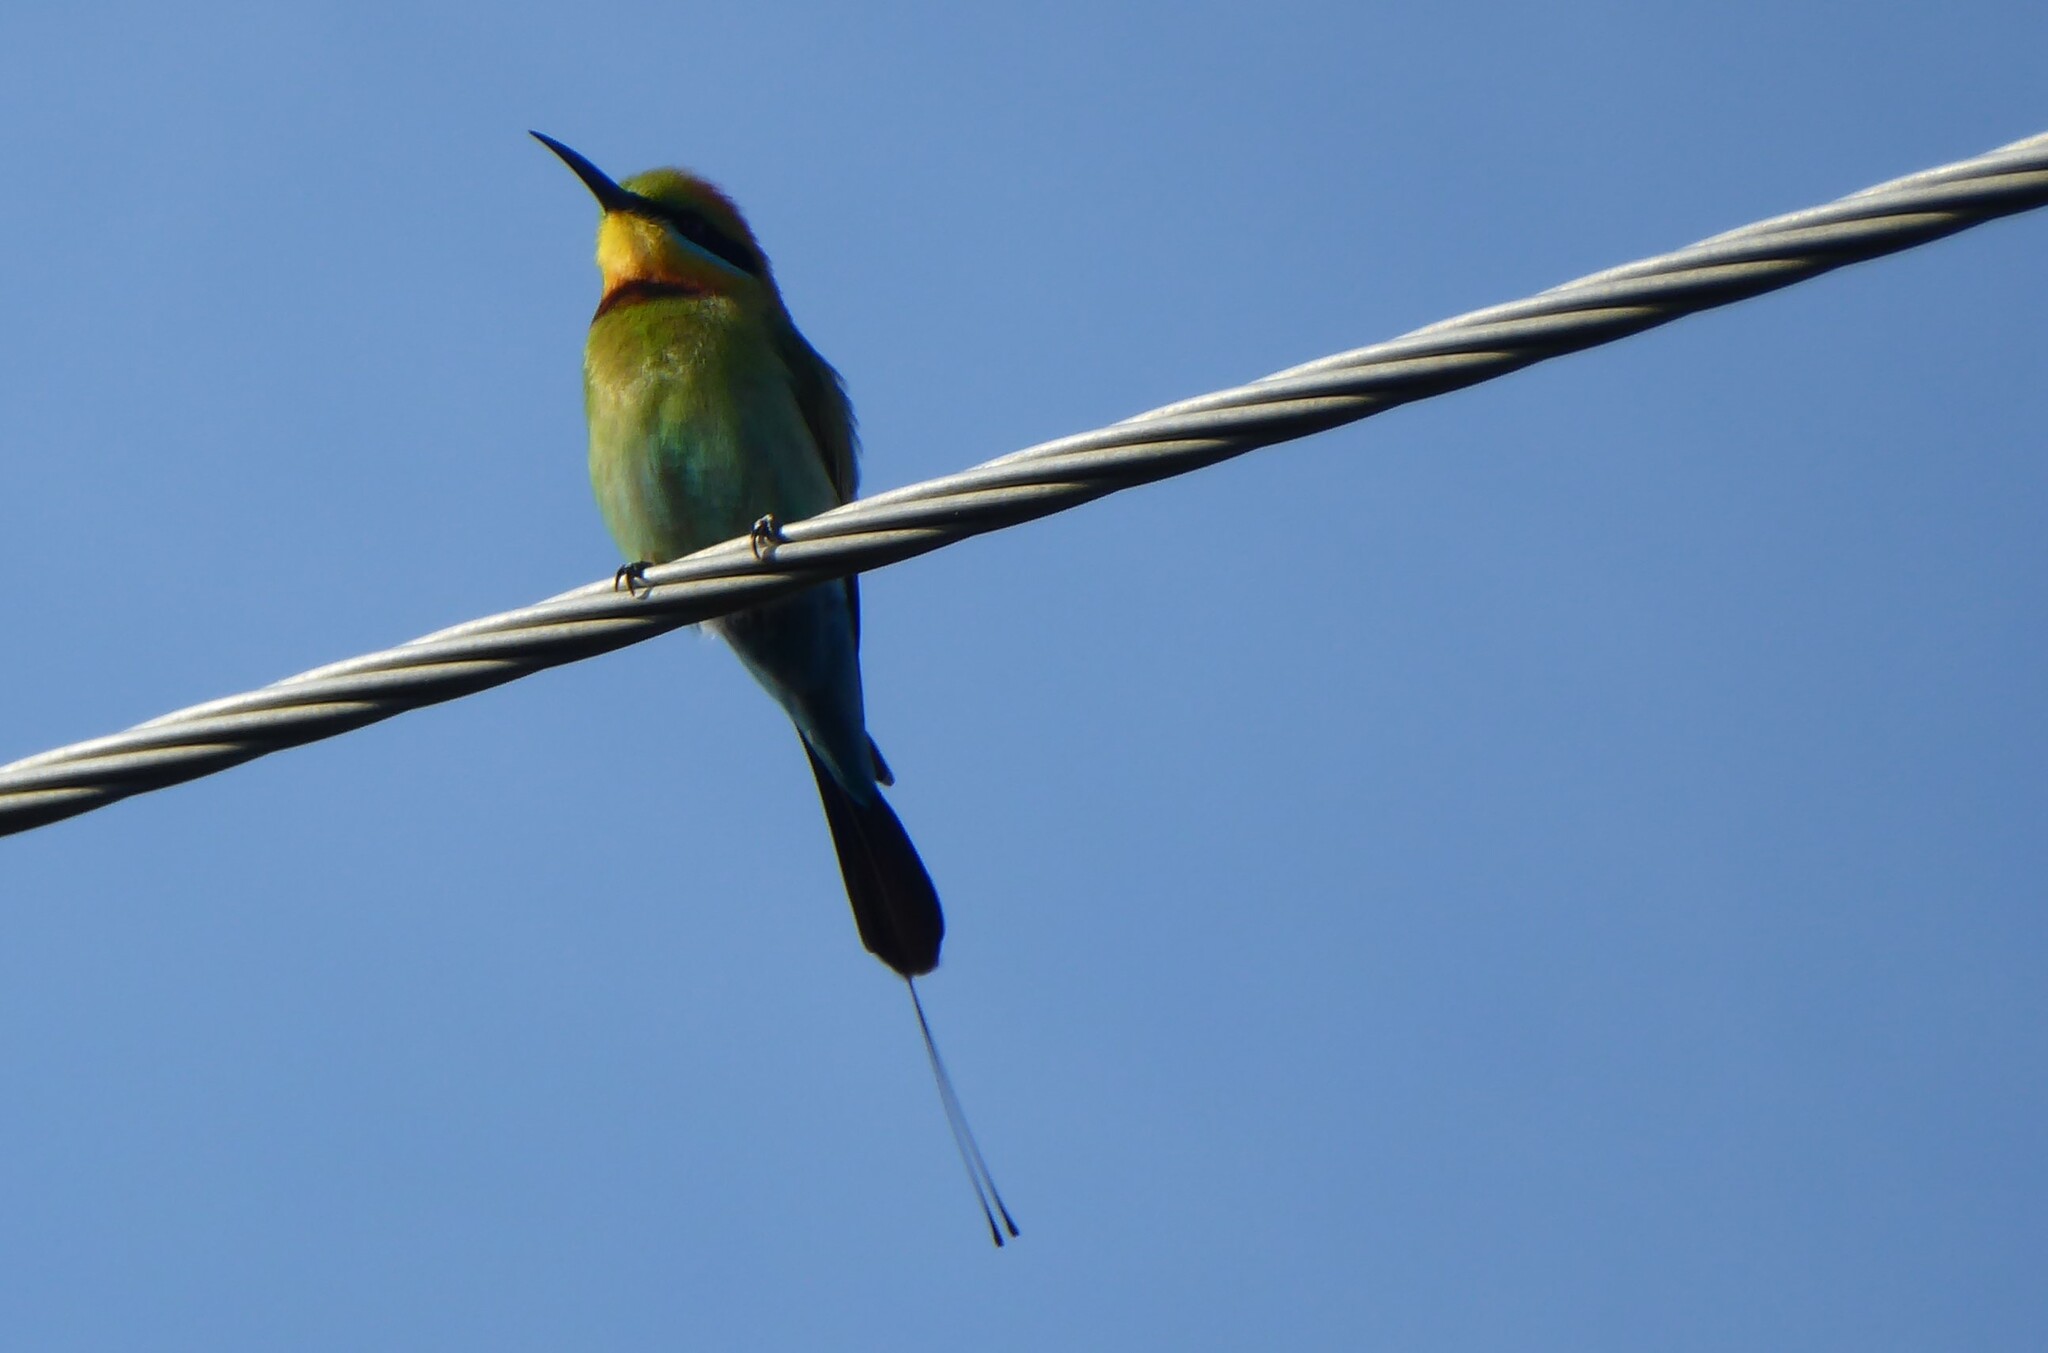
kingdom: Animalia
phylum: Chordata
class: Aves
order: Coraciiformes
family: Meropidae
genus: Merops
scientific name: Merops ornatus
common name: Rainbow bee-eater
